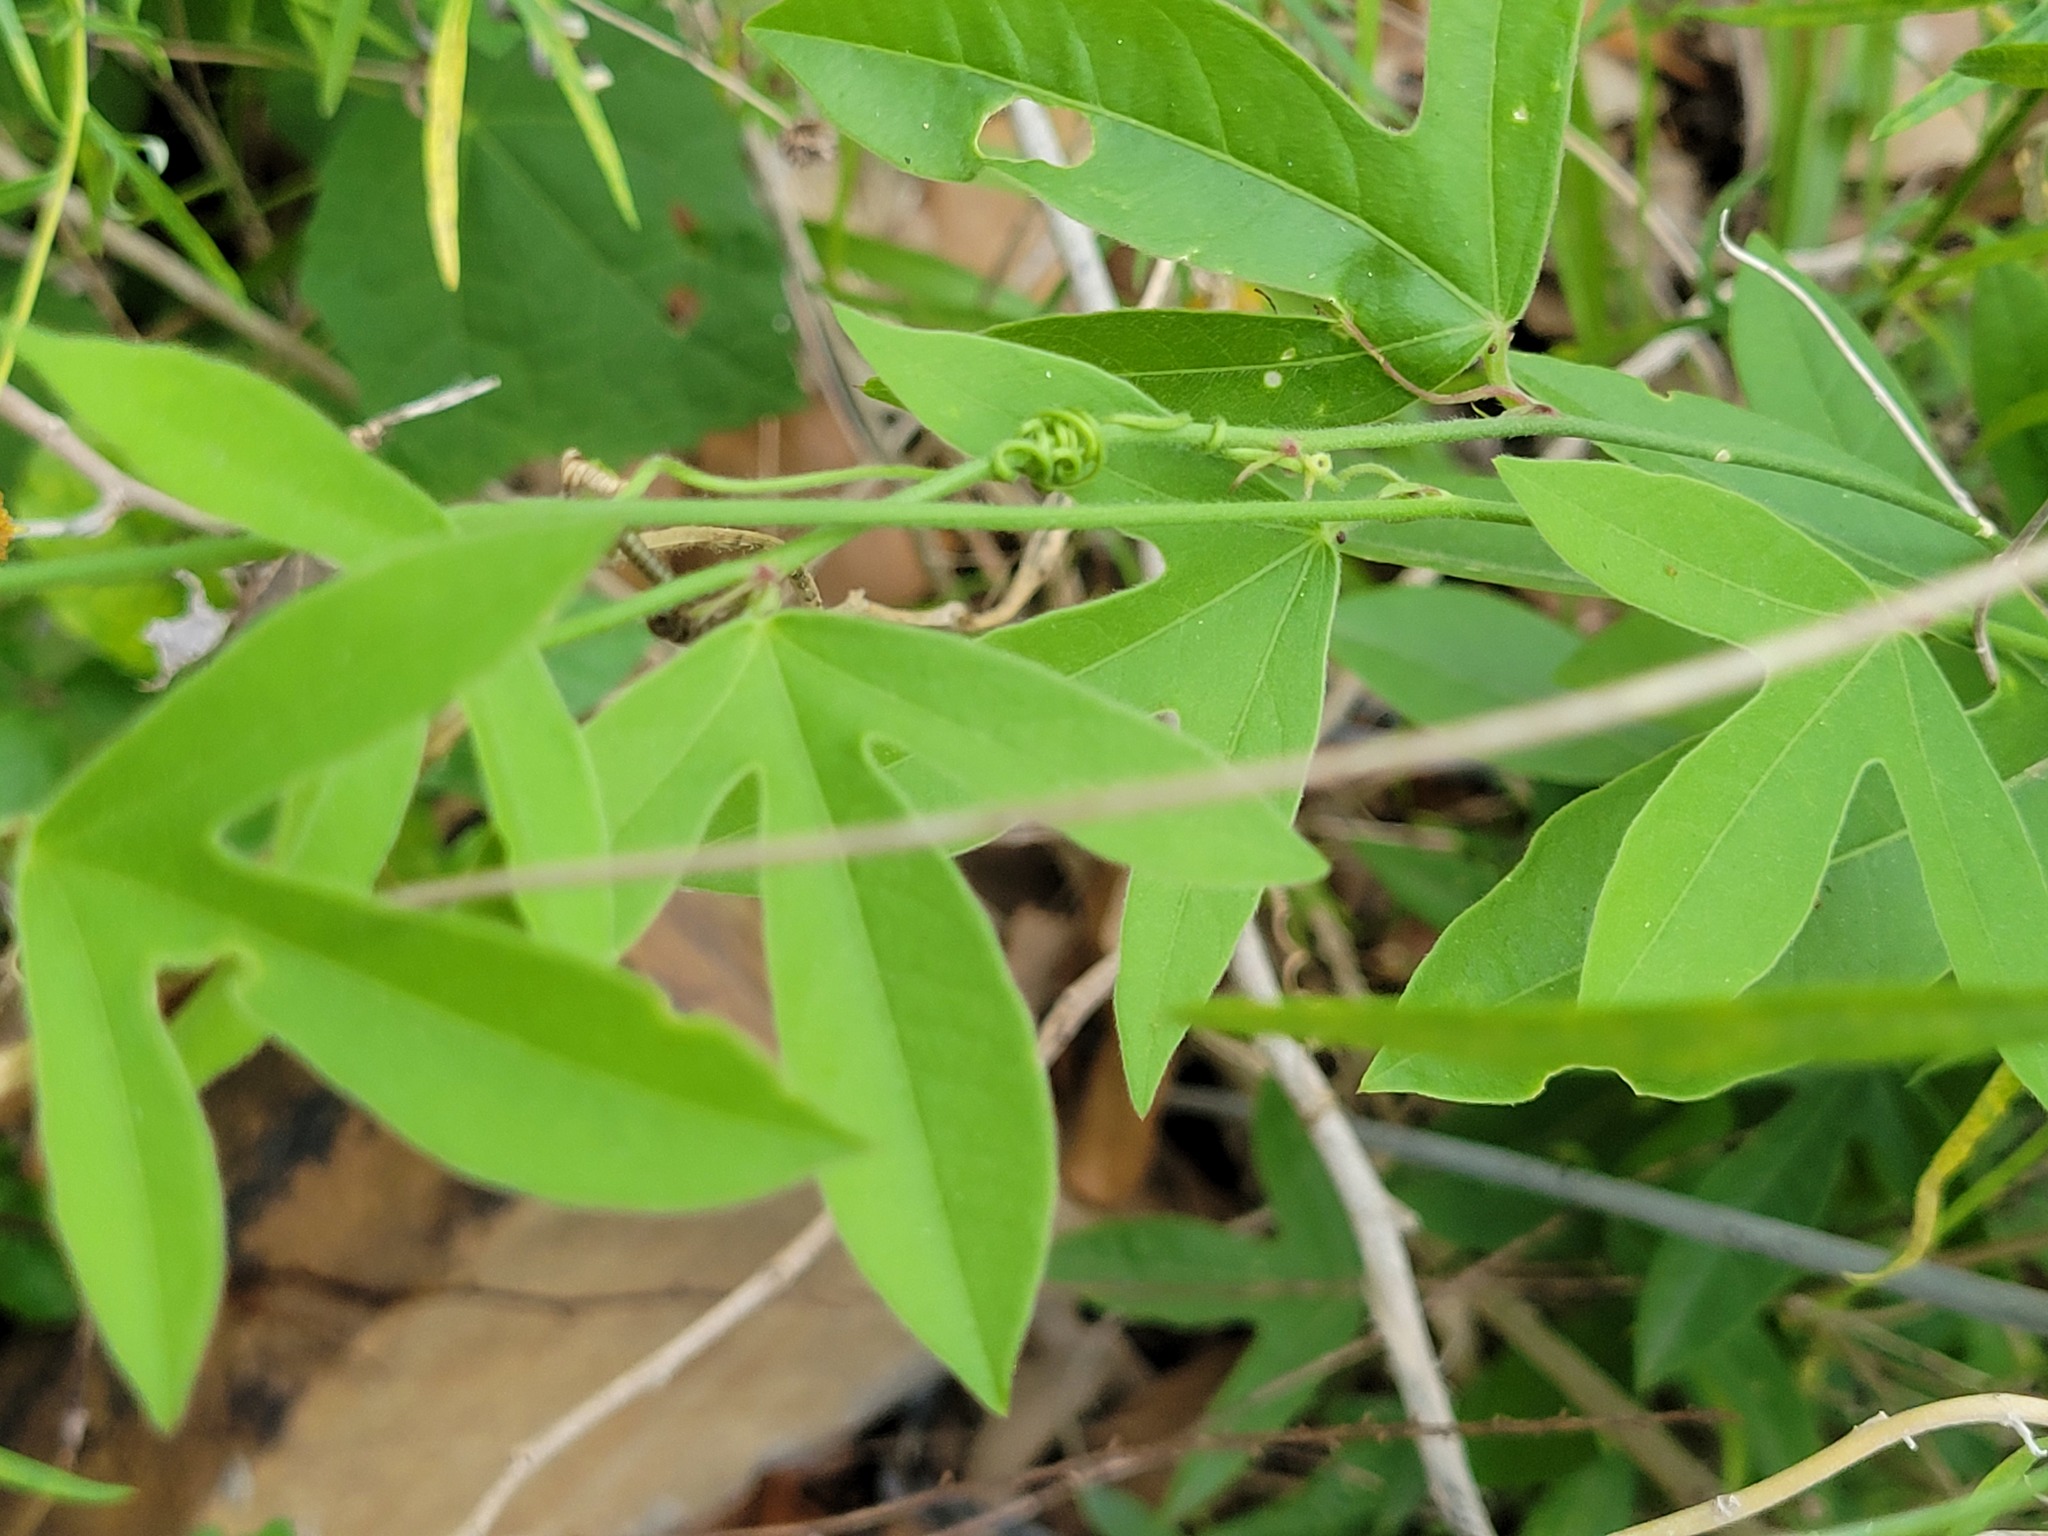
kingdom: Plantae
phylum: Tracheophyta
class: Magnoliopsida
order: Malpighiales
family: Passifloraceae
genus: Passiflora
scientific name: Passiflora pallida
